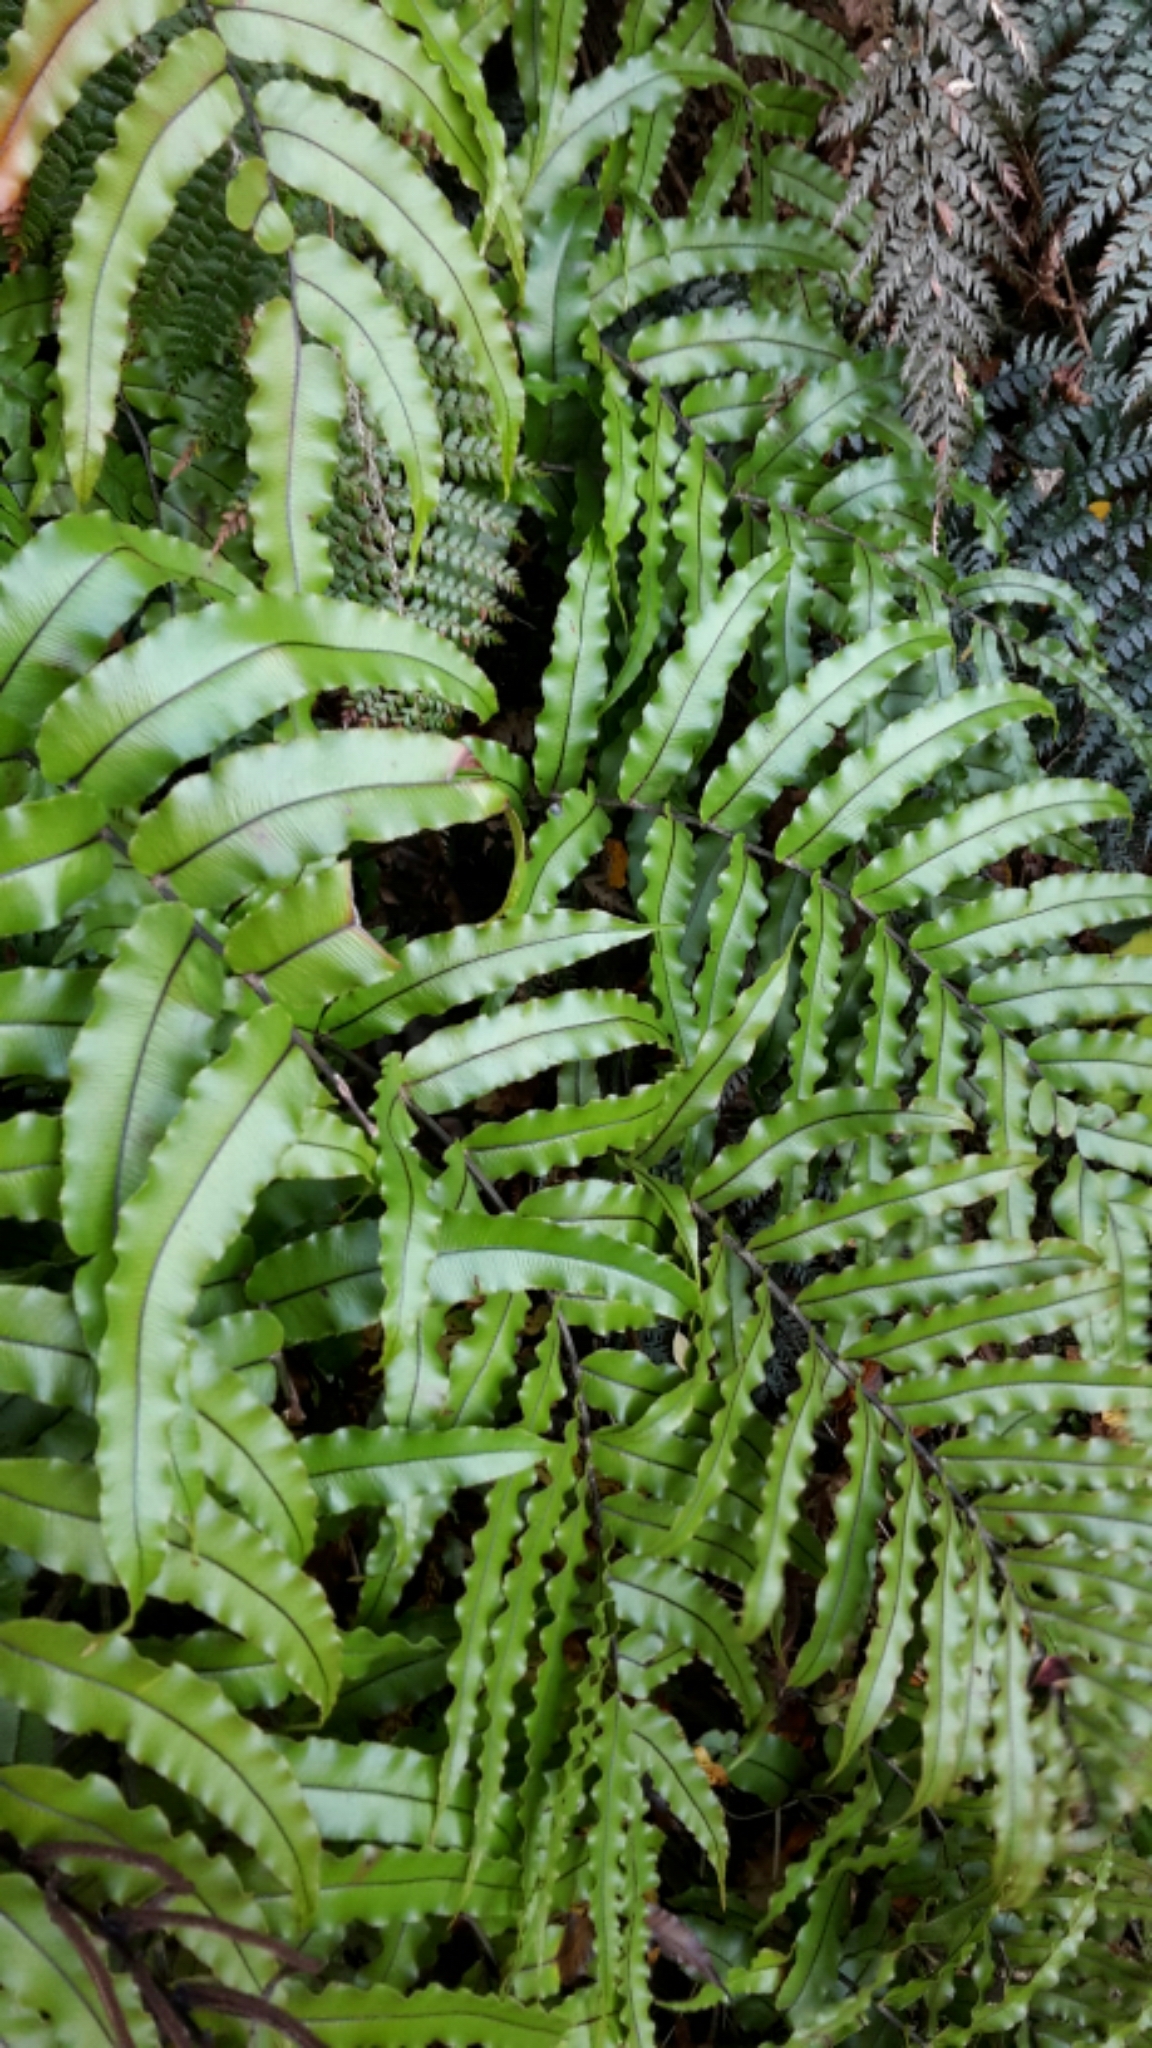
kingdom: Plantae
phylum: Tracheophyta
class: Polypodiopsida
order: Polypodiales
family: Blechnaceae
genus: Parablechnum
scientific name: Parablechnum montanum
